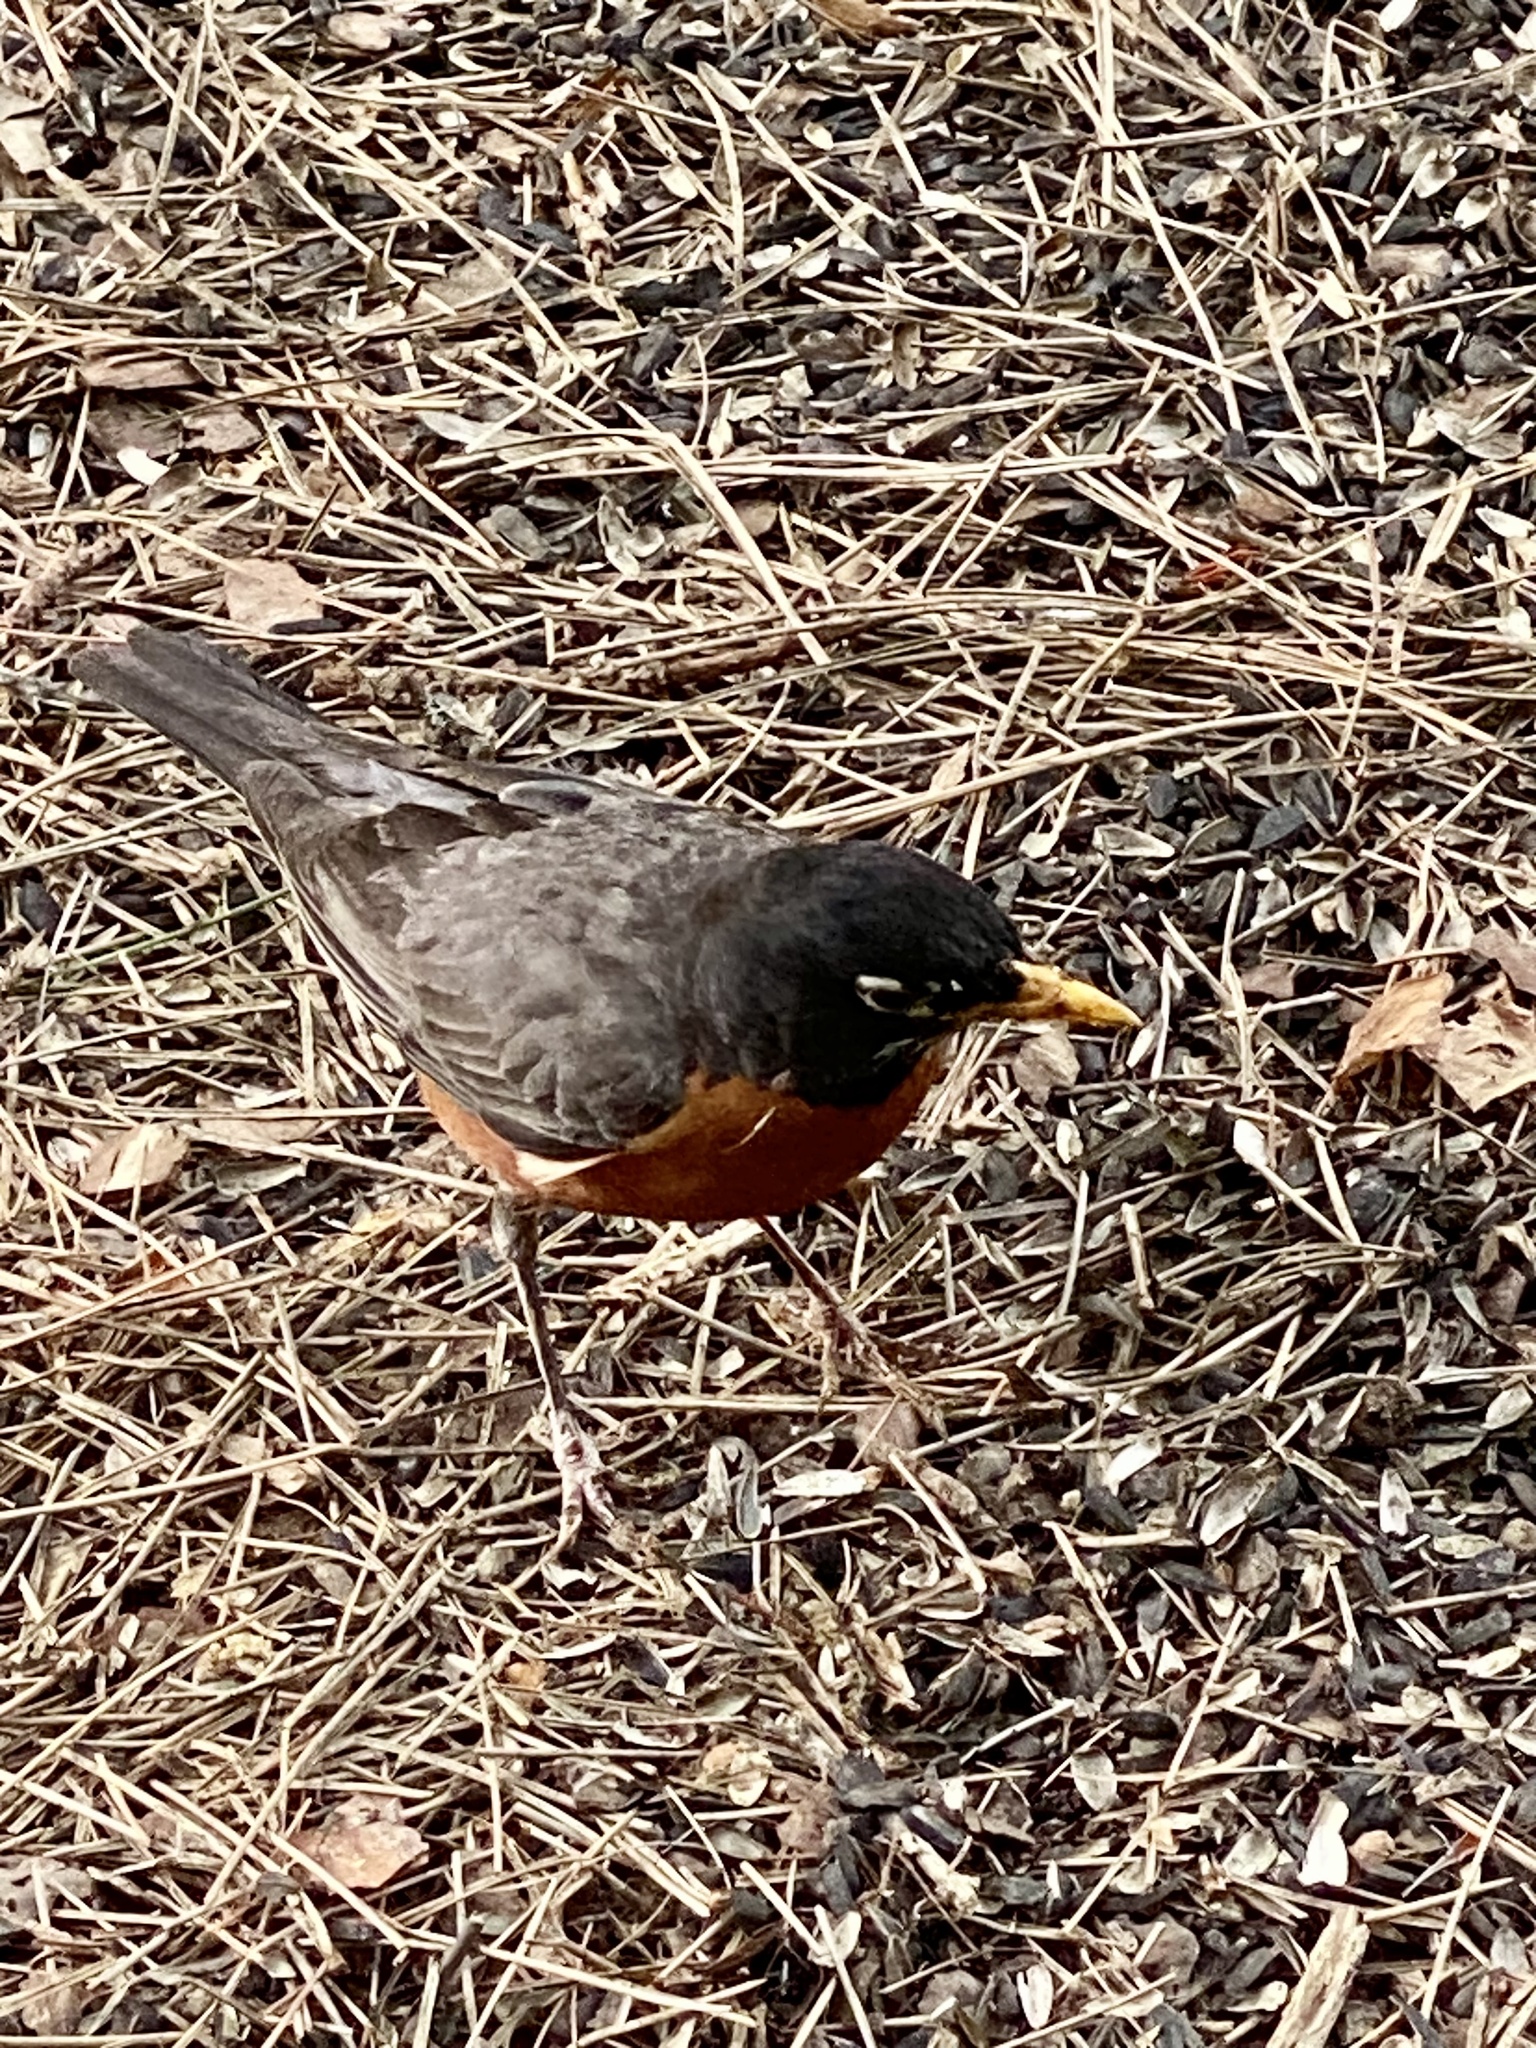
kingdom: Animalia
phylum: Chordata
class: Aves
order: Passeriformes
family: Turdidae
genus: Turdus
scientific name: Turdus migratorius
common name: American robin
